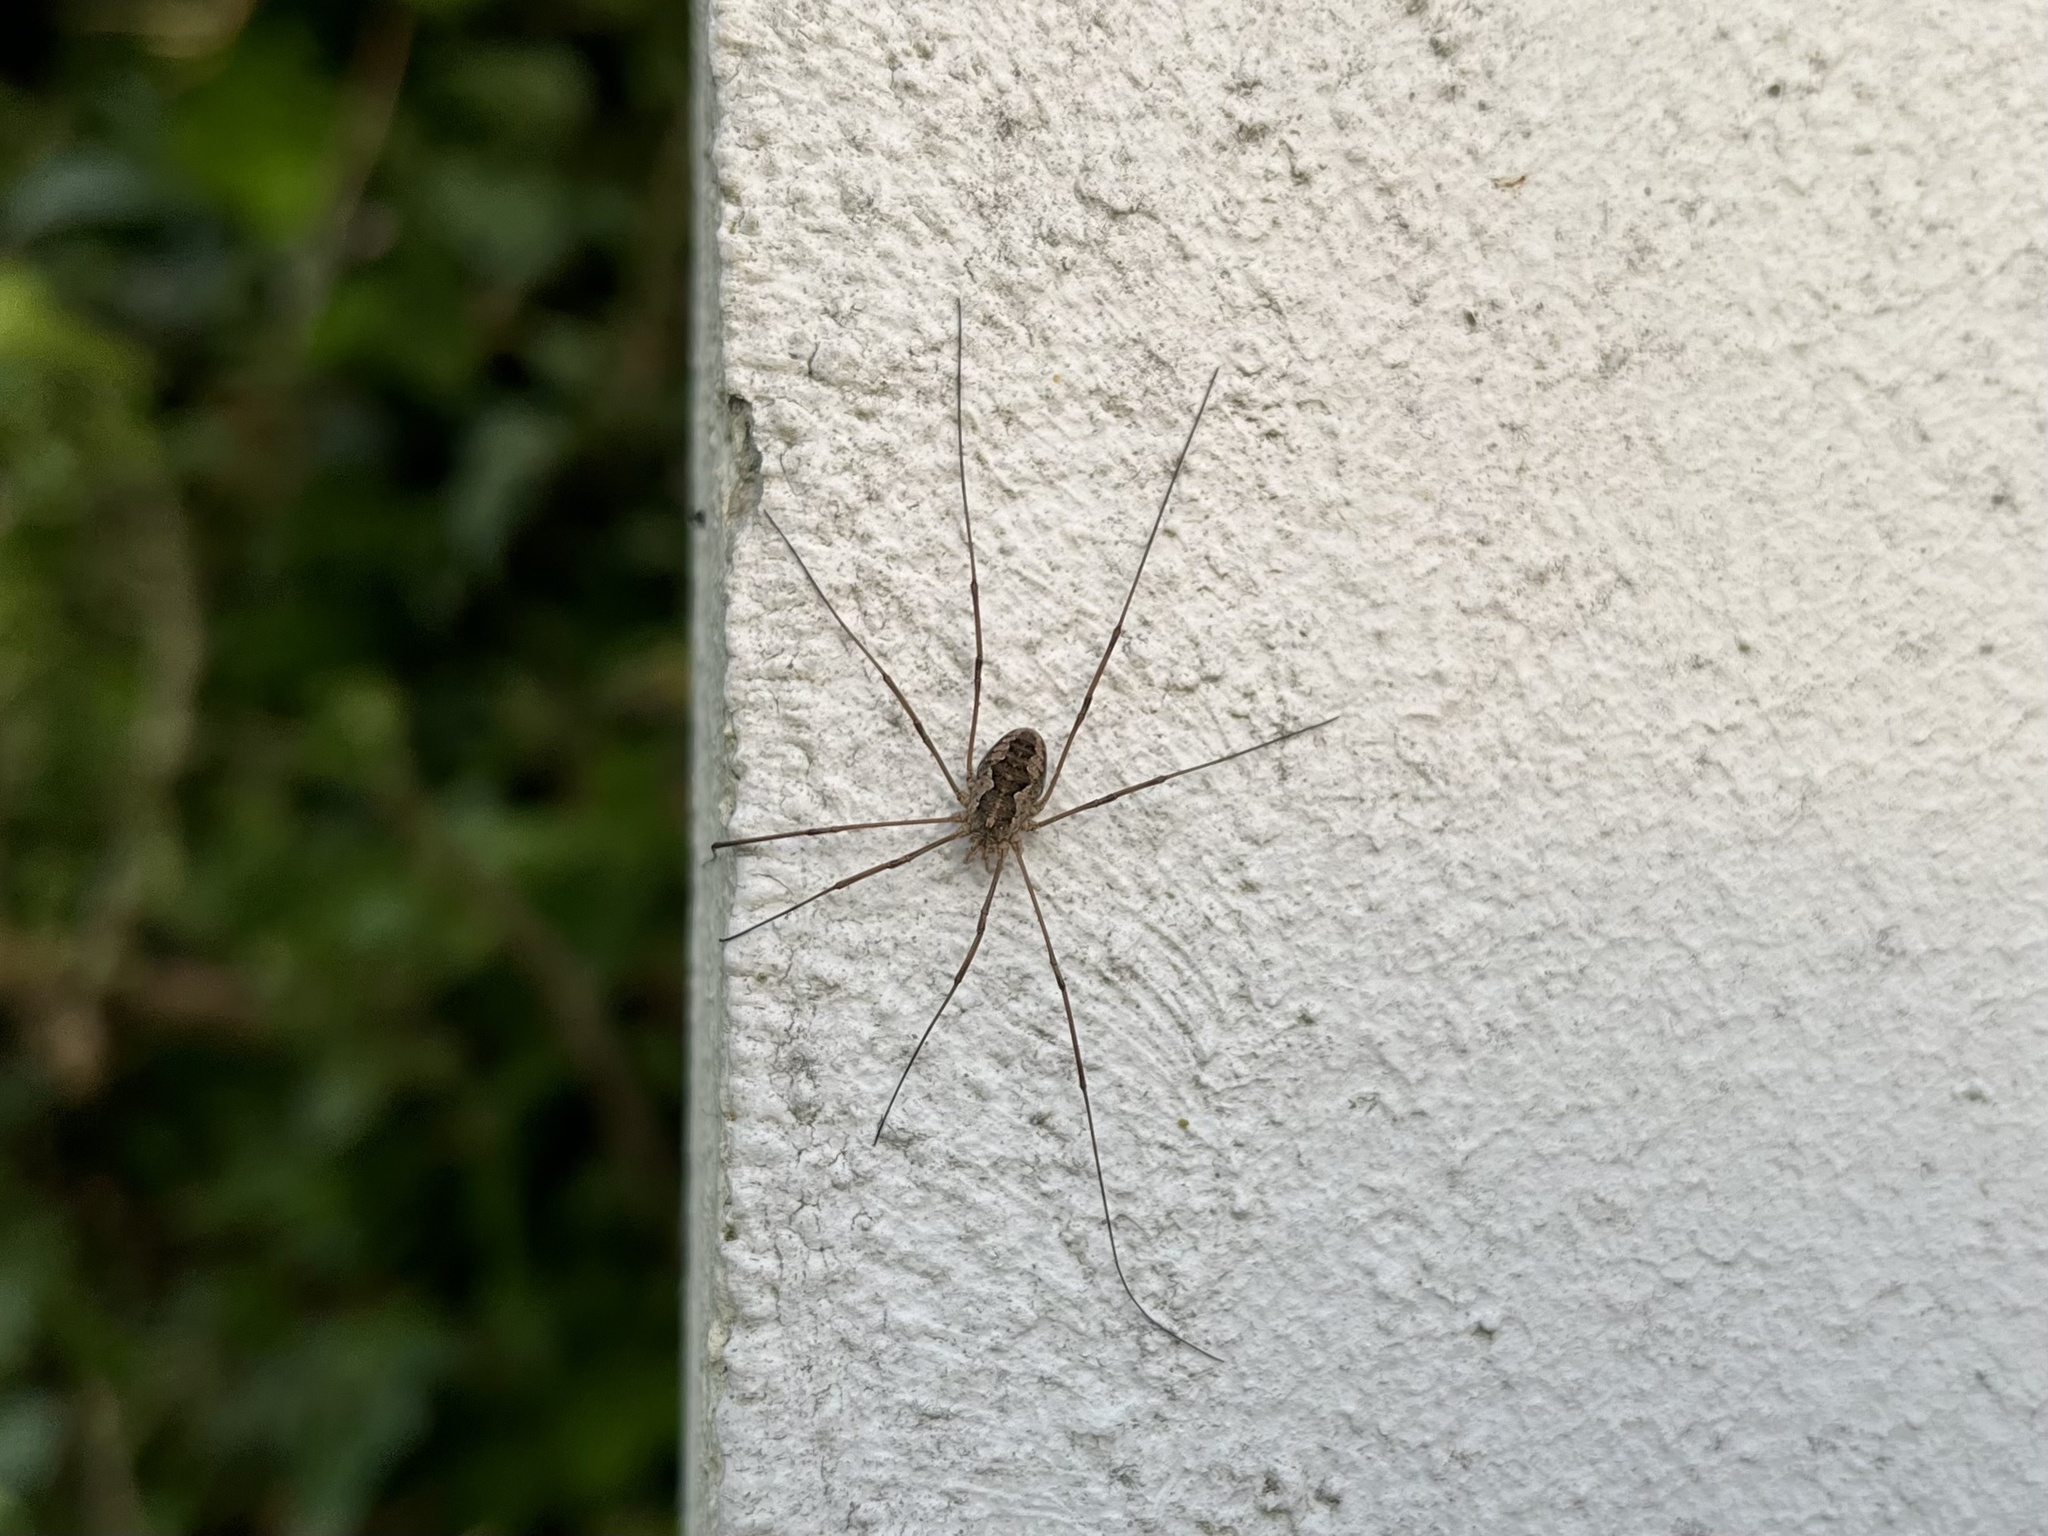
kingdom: Animalia
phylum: Arthropoda
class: Arachnida
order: Opiliones
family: Phalangiidae
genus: Phalangium
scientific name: Phalangium opilio
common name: Daddy longleg
